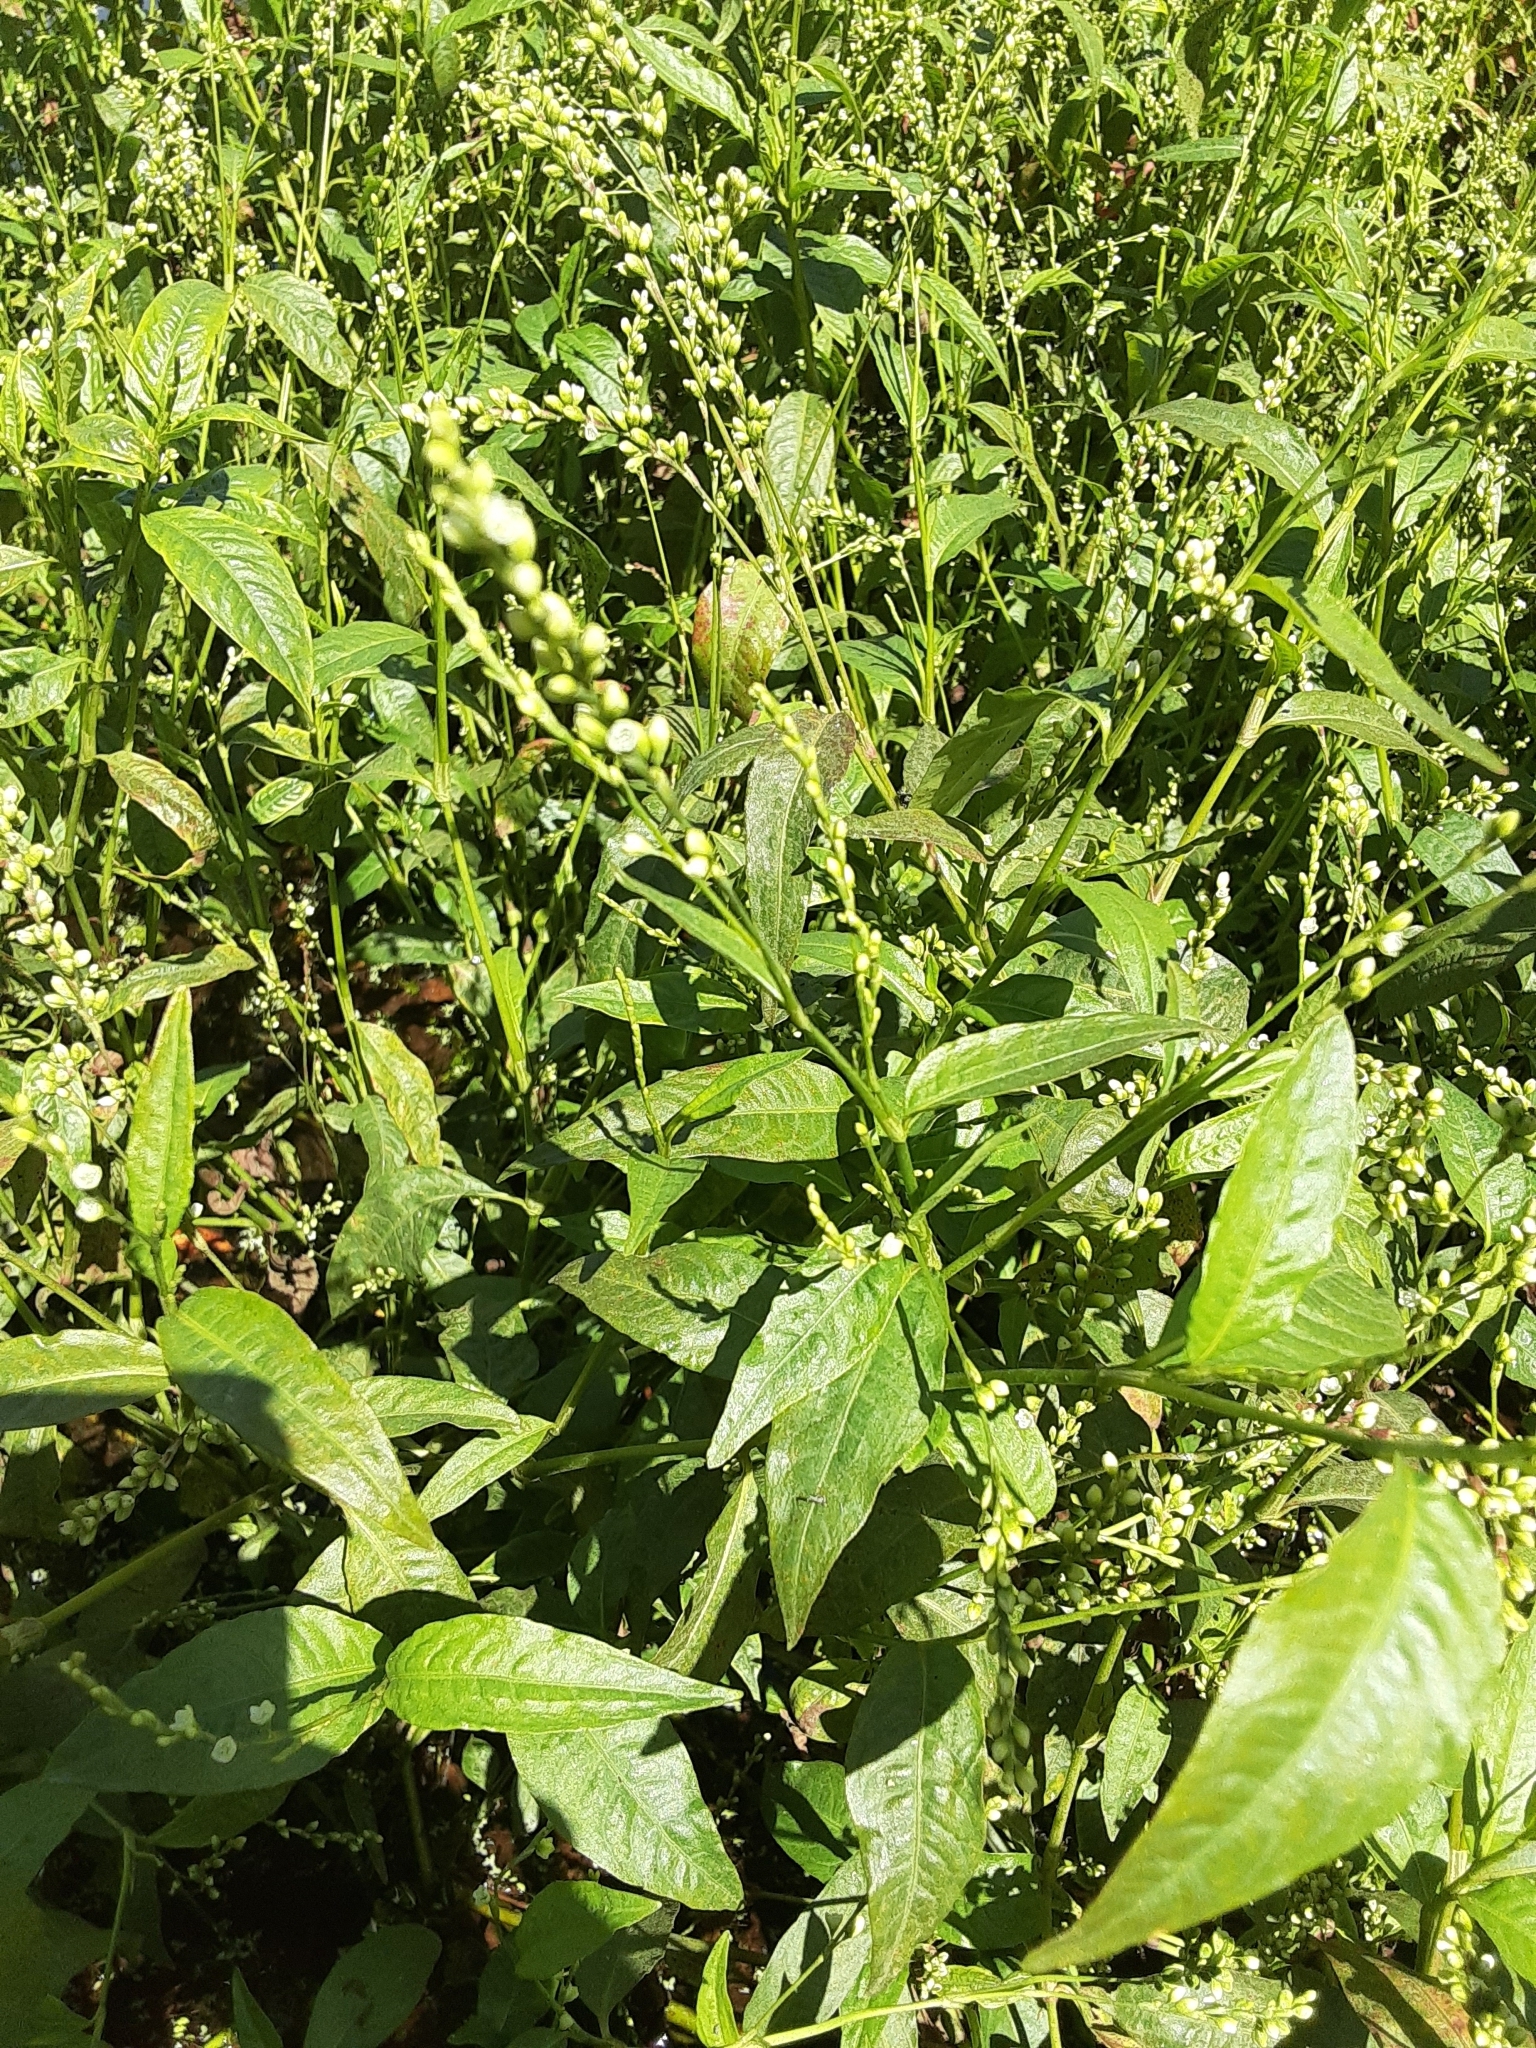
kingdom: Plantae
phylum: Tracheophyta
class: Magnoliopsida
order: Caryophyllales
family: Polygonaceae
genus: Persicaria
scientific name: Persicaria punctata
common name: Dotted smartweed
